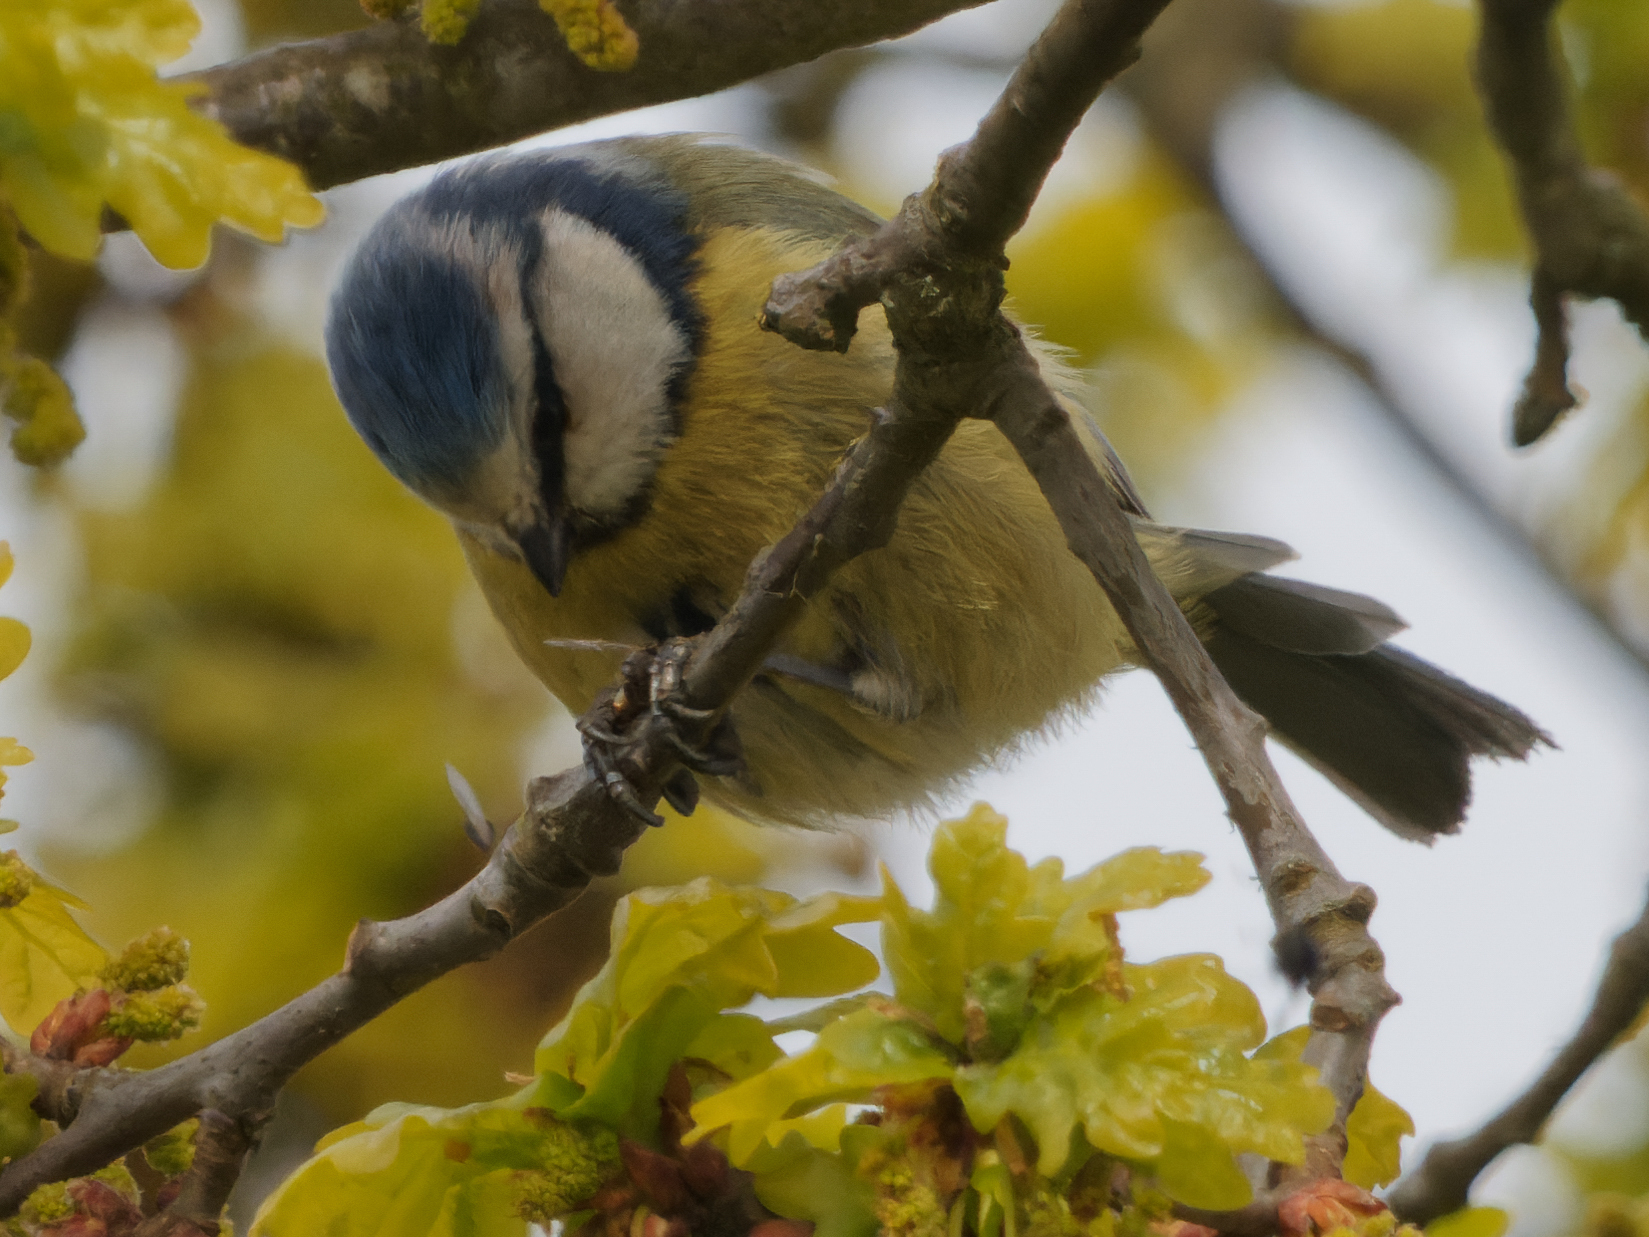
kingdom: Animalia
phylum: Chordata
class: Aves
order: Passeriformes
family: Paridae
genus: Cyanistes
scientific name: Cyanistes caeruleus
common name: Eurasian blue tit
